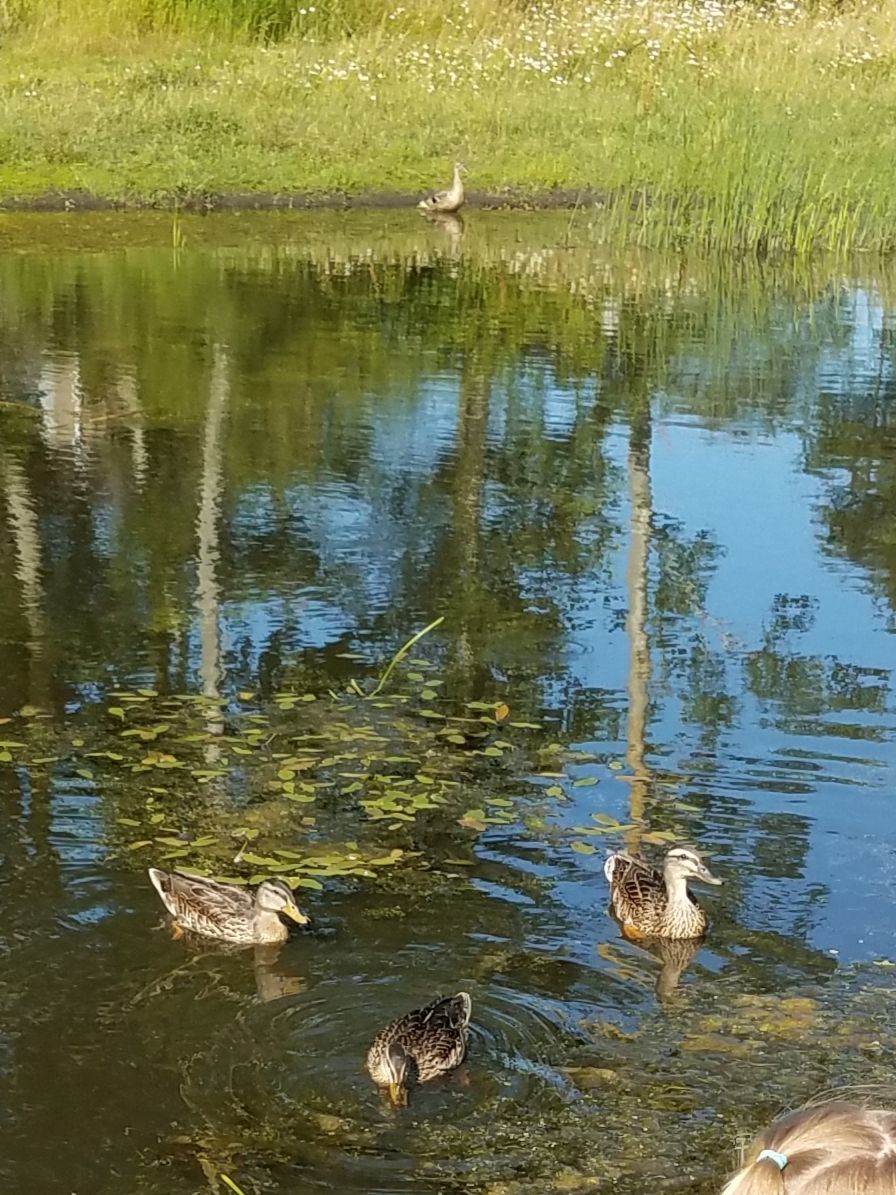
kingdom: Animalia
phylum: Chordata
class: Aves
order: Anseriformes
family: Anatidae
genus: Anas
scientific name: Anas platyrhynchos
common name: Mallard
